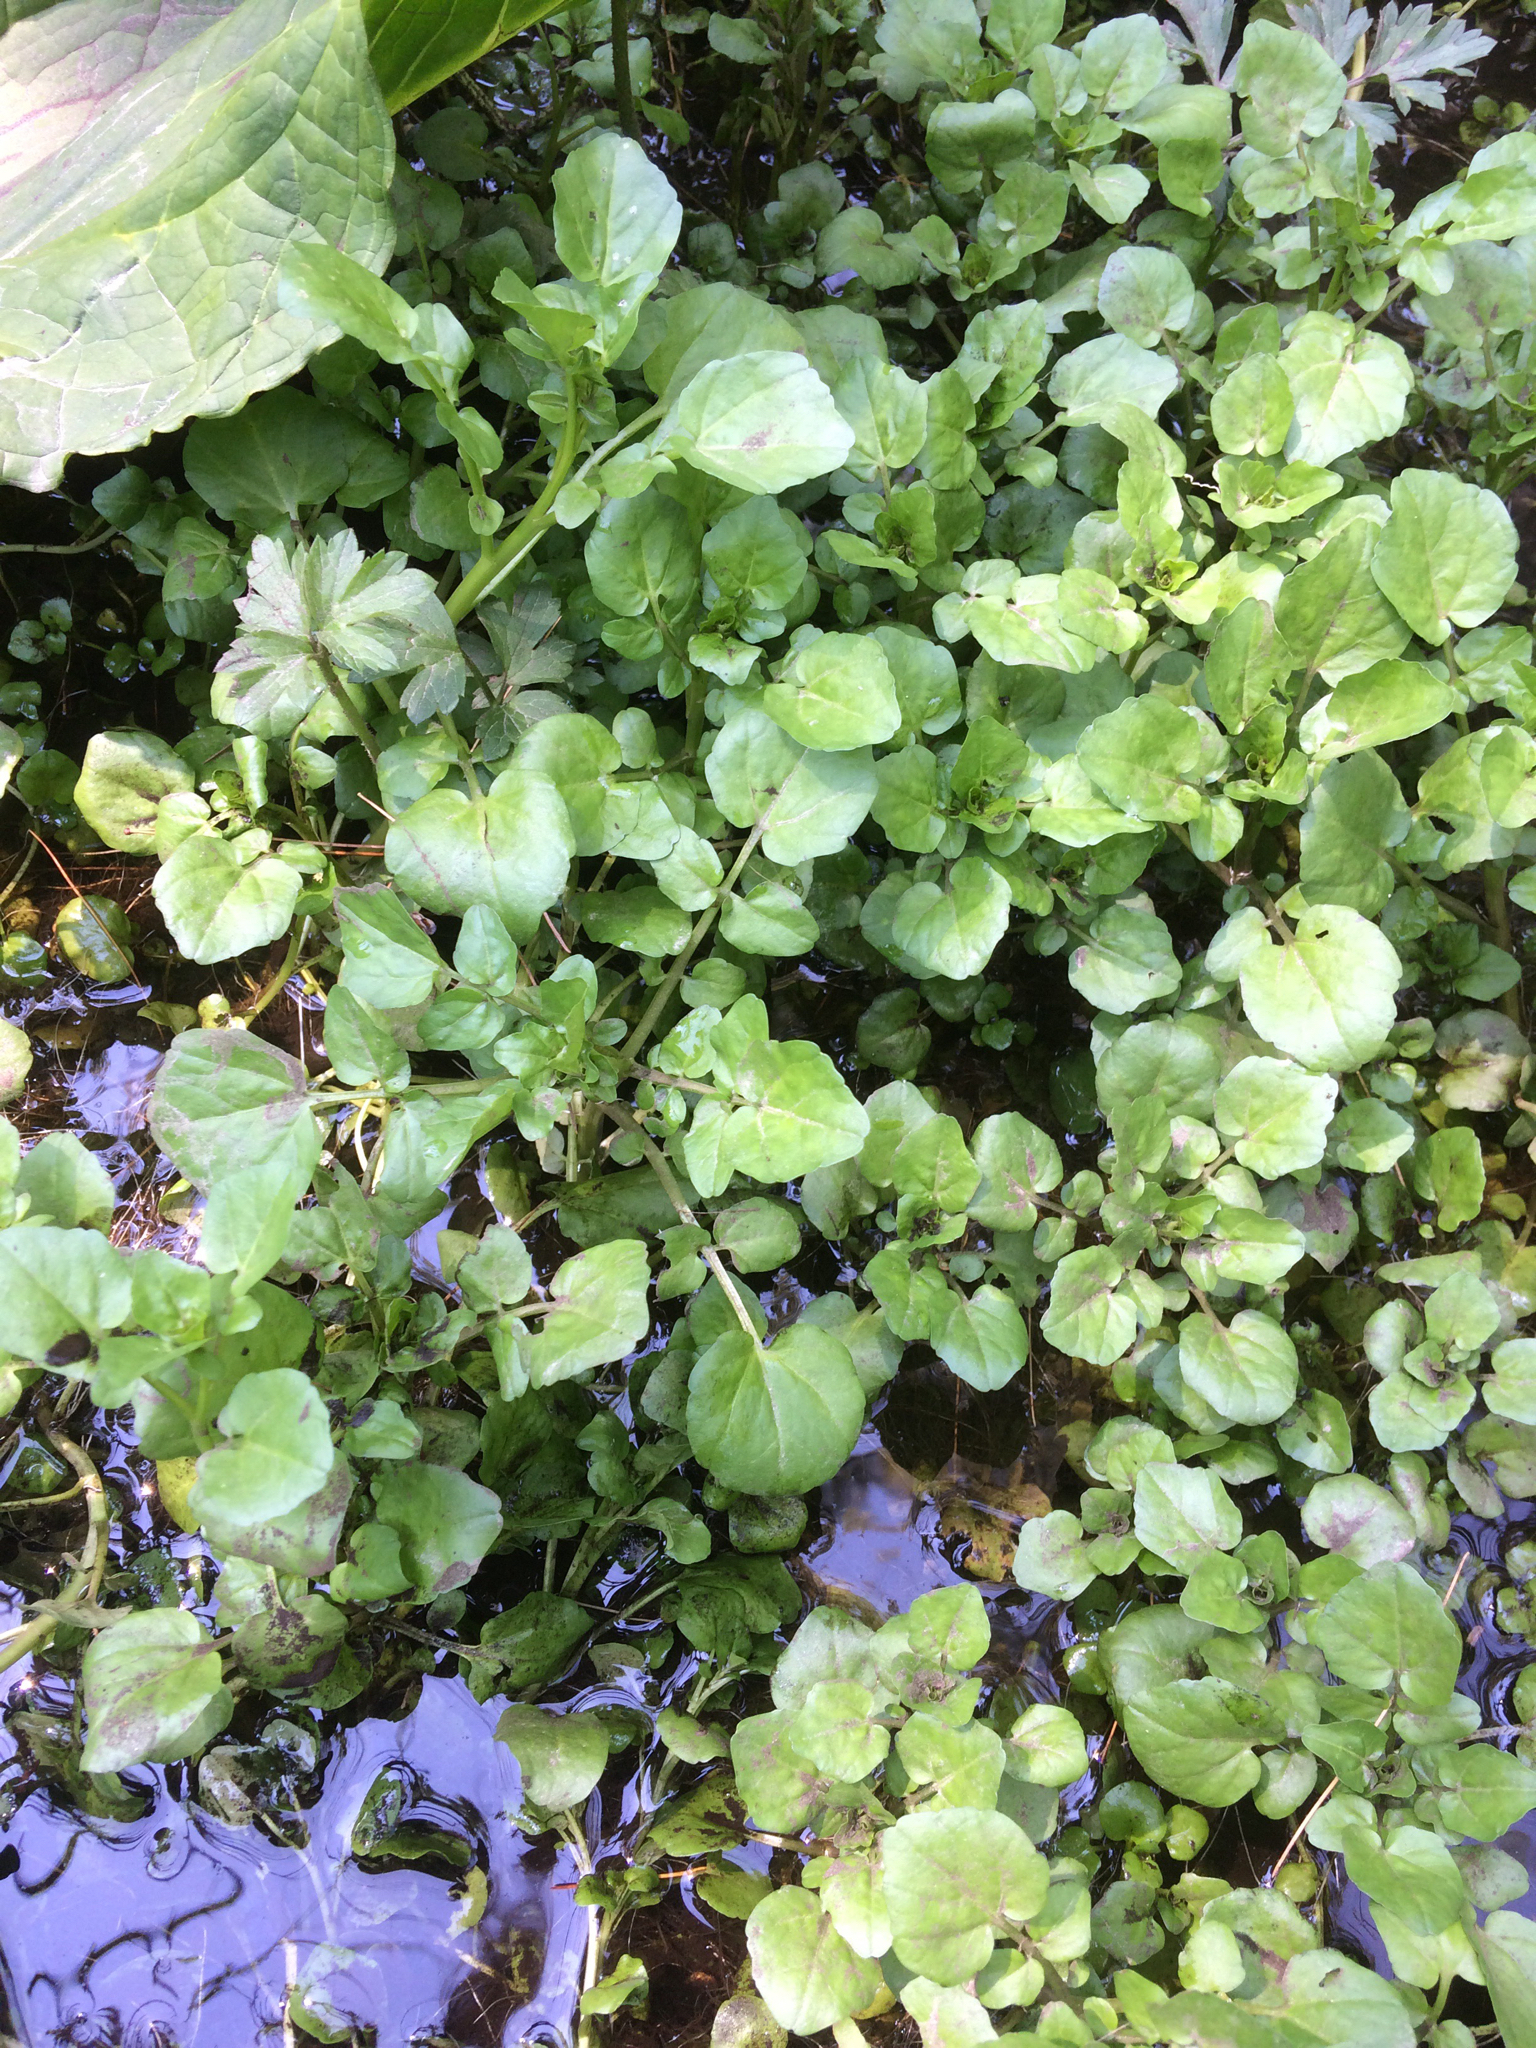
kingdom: Plantae
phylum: Tracheophyta
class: Magnoliopsida
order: Brassicales
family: Brassicaceae
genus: Nasturtium
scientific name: Nasturtium officinale
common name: Watercress
